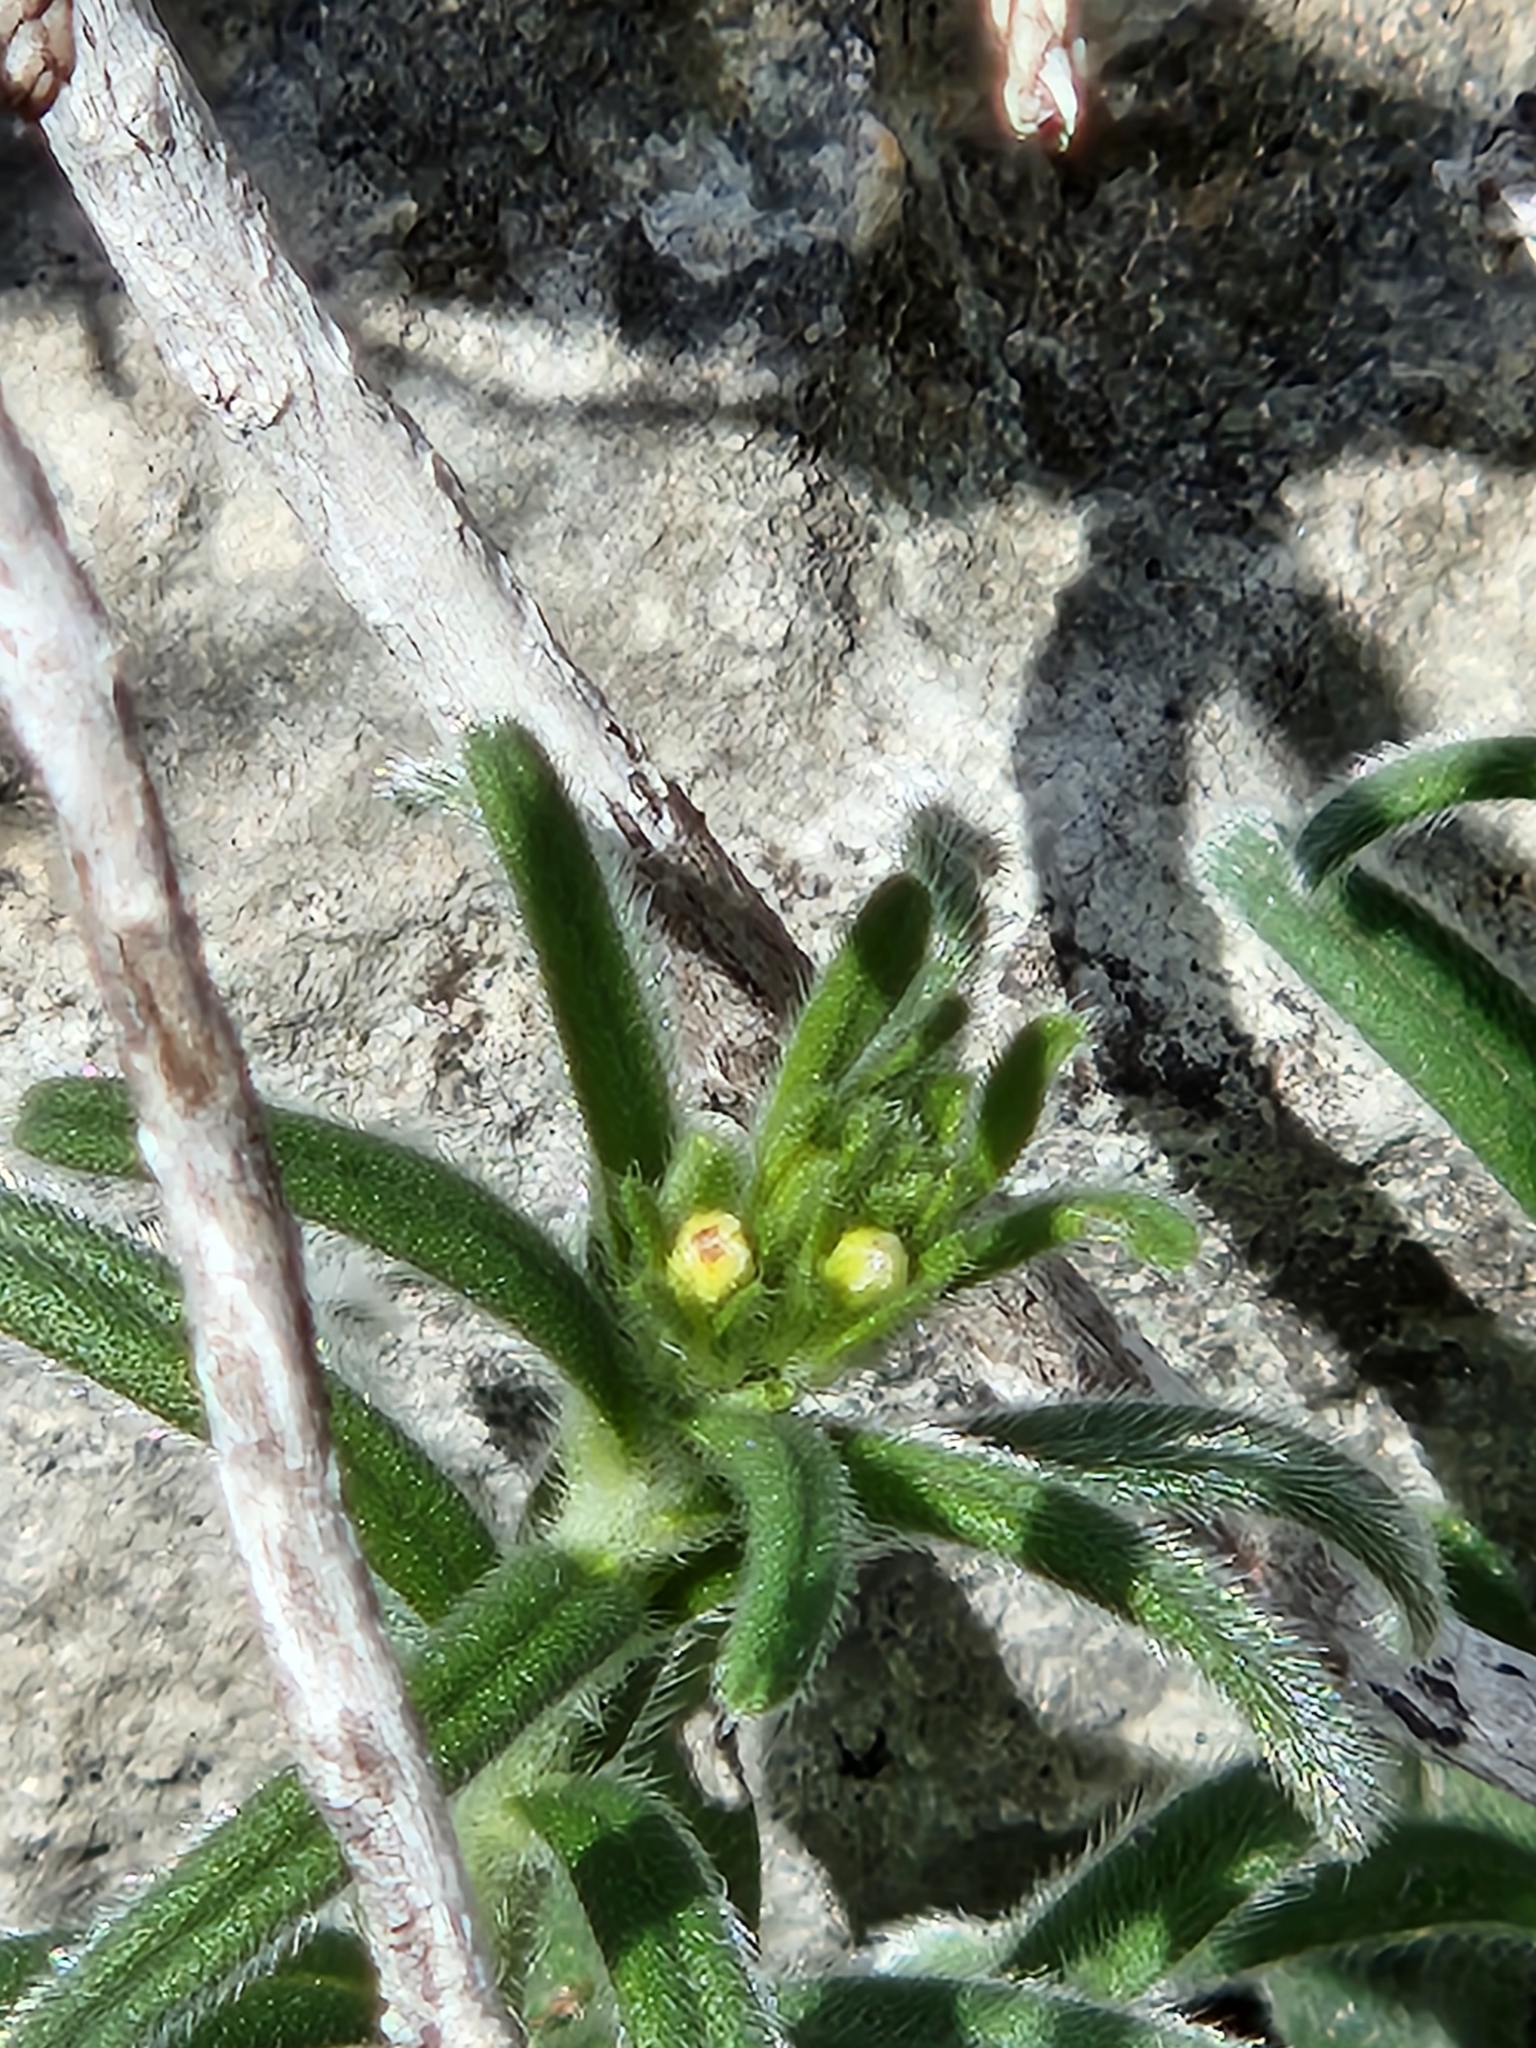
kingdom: Plantae
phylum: Tracheophyta
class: Magnoliopsida
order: Boraginales
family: Boraginaceae
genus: Lithospermum
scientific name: Lithospermum mirabile
